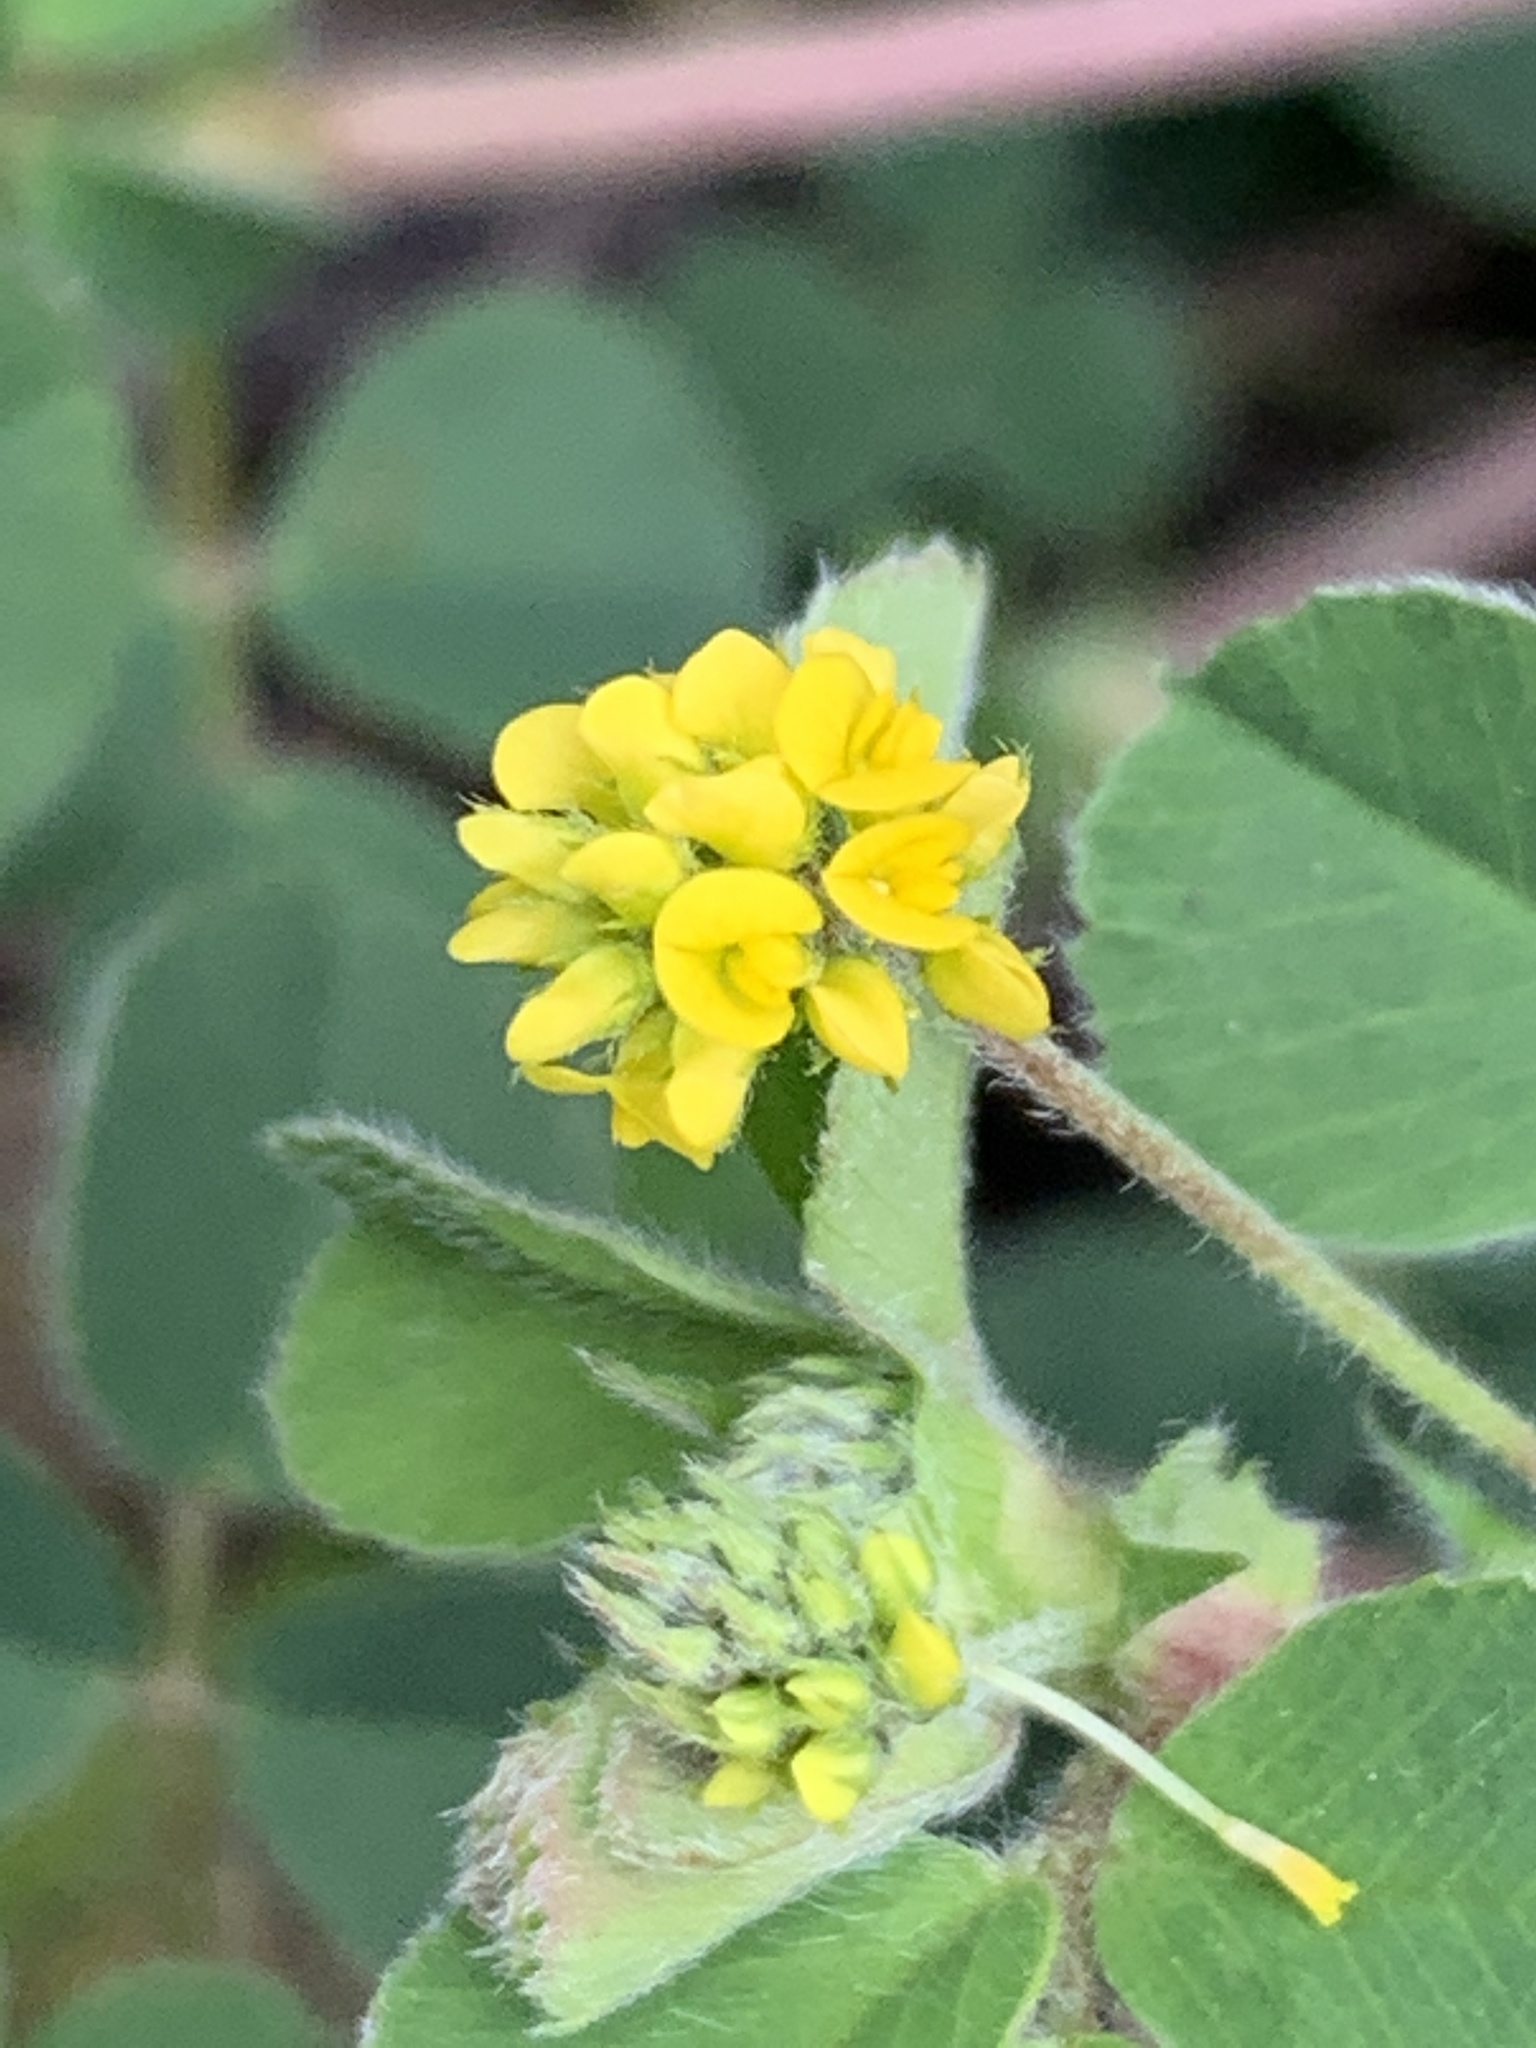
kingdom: Plantae
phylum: Tracheophyta
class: Magnoliopsida
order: Fabales
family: Fabaceae
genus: Medicago
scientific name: Medicago lupulina
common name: Black medick
